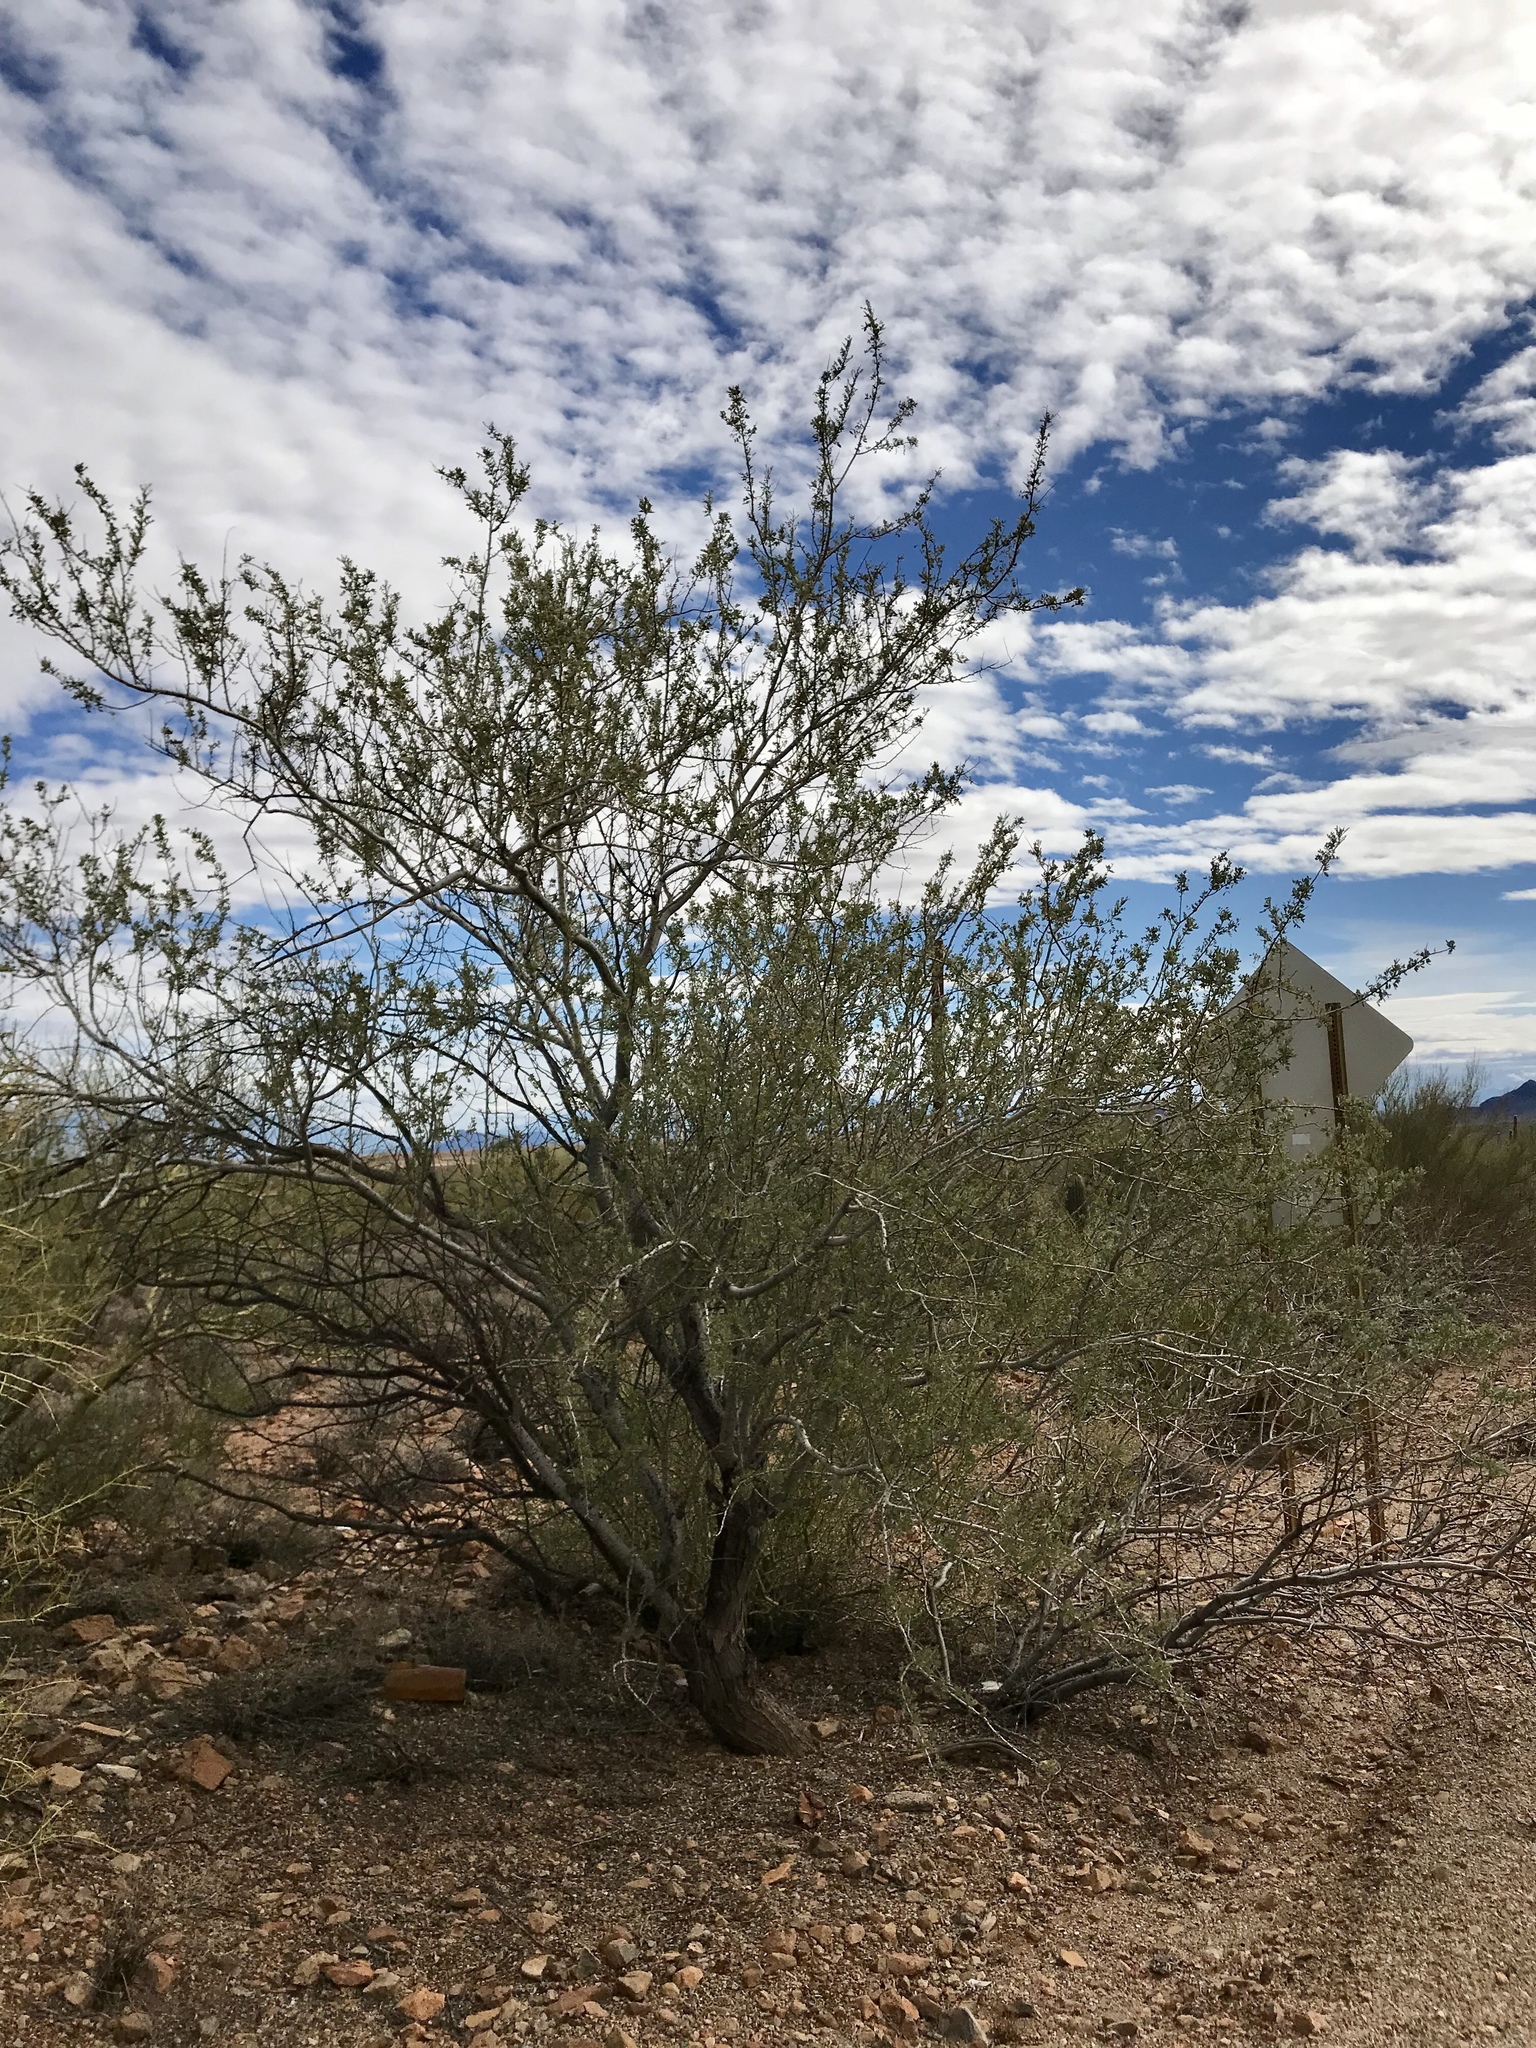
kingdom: Plantae
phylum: Tracheophyta
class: Magnoliopsida
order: Fabales
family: Fabaceae
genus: Olneya
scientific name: Olneya tesota
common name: Desert ironwood
